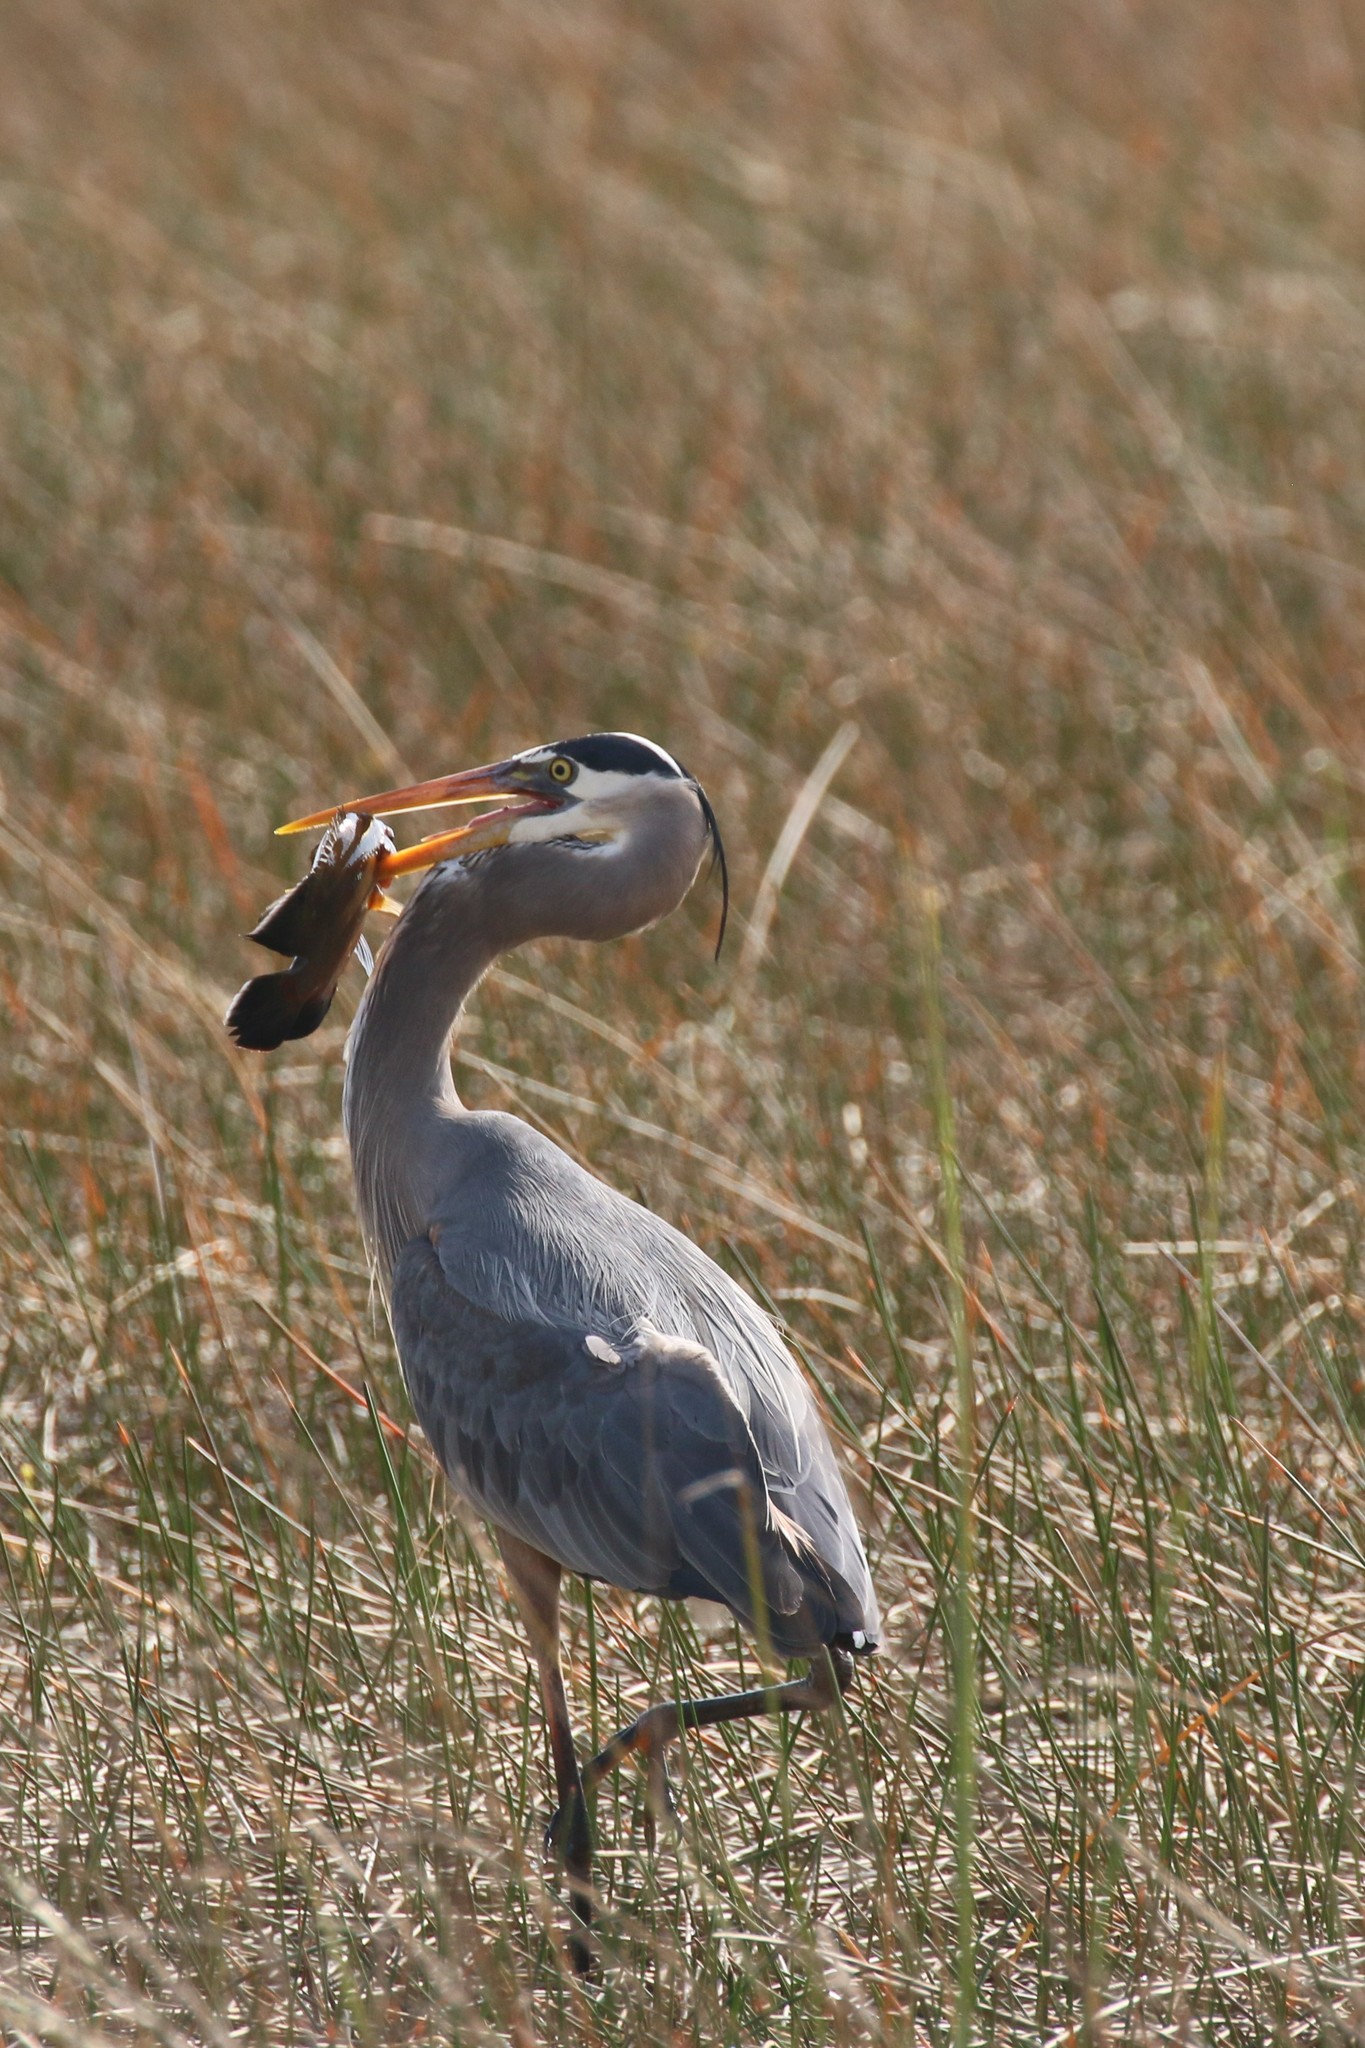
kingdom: Animalia
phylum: Chordata
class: Aves
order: Pelecaniformes
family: Ardeidae
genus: Ardea
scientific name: Ardea herodias
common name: Great blue heron
